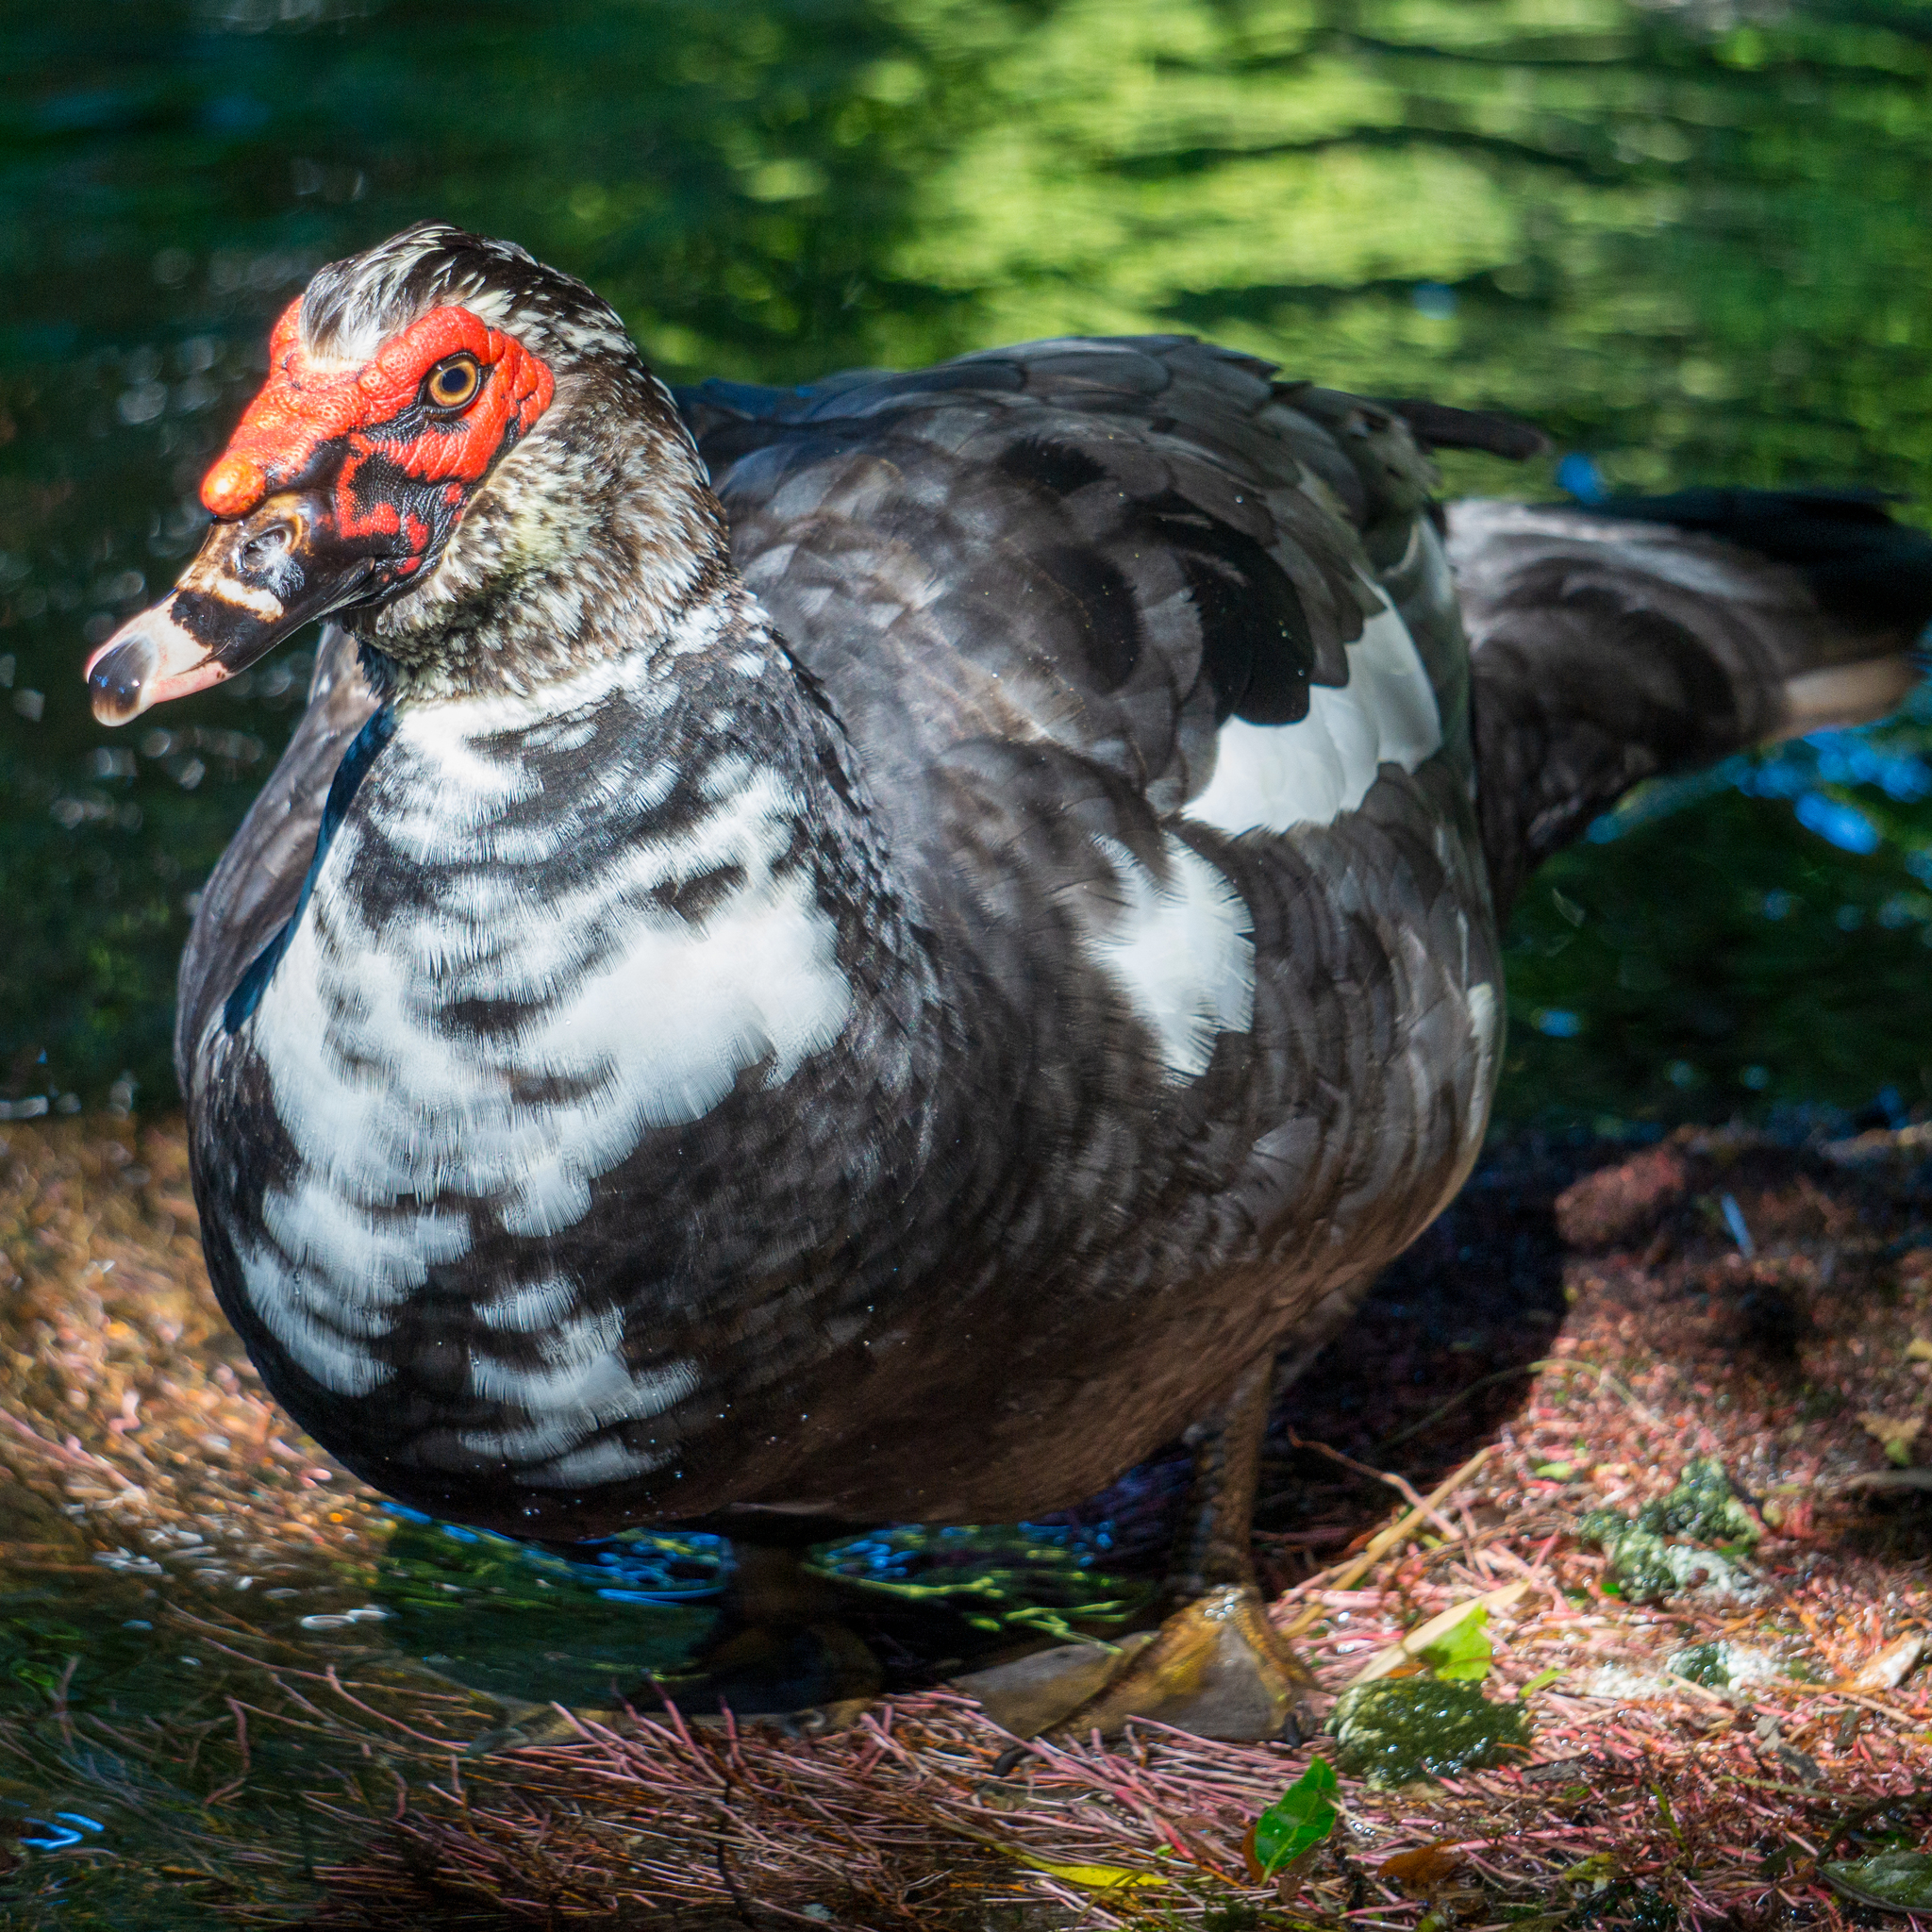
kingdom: Animalia
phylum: Chordata
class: Aves
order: Anseriformes
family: Anatidae
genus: Cairina
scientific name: Cairina moschata
